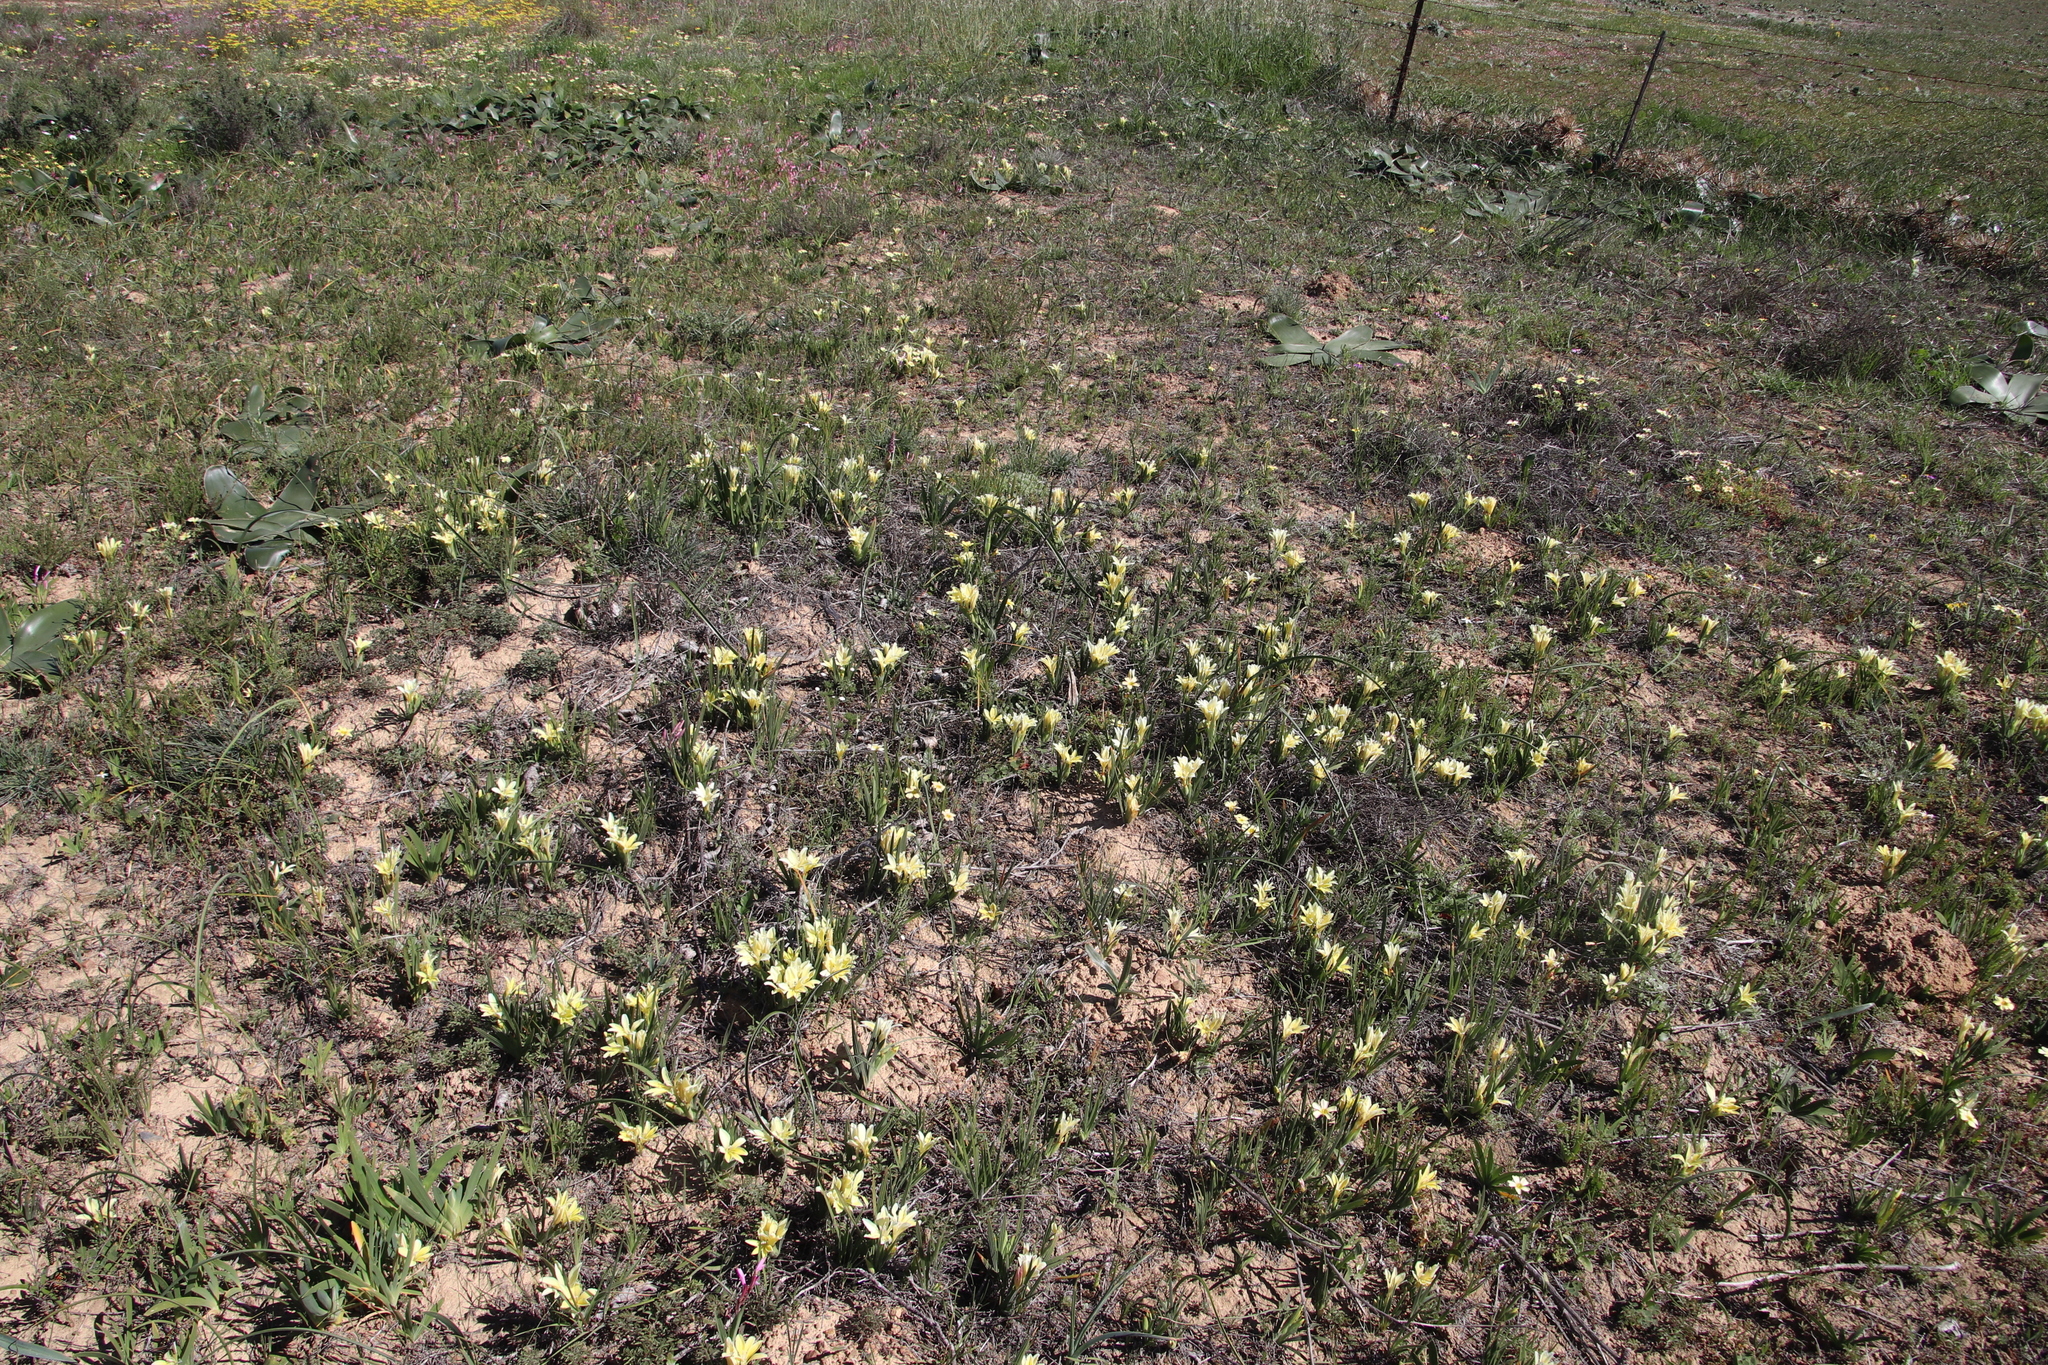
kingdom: Plantae
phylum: Tracheophyta
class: Liliopsida
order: Asparagales
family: Iridaceae
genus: Babiana
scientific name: Babiana vanzijliae
